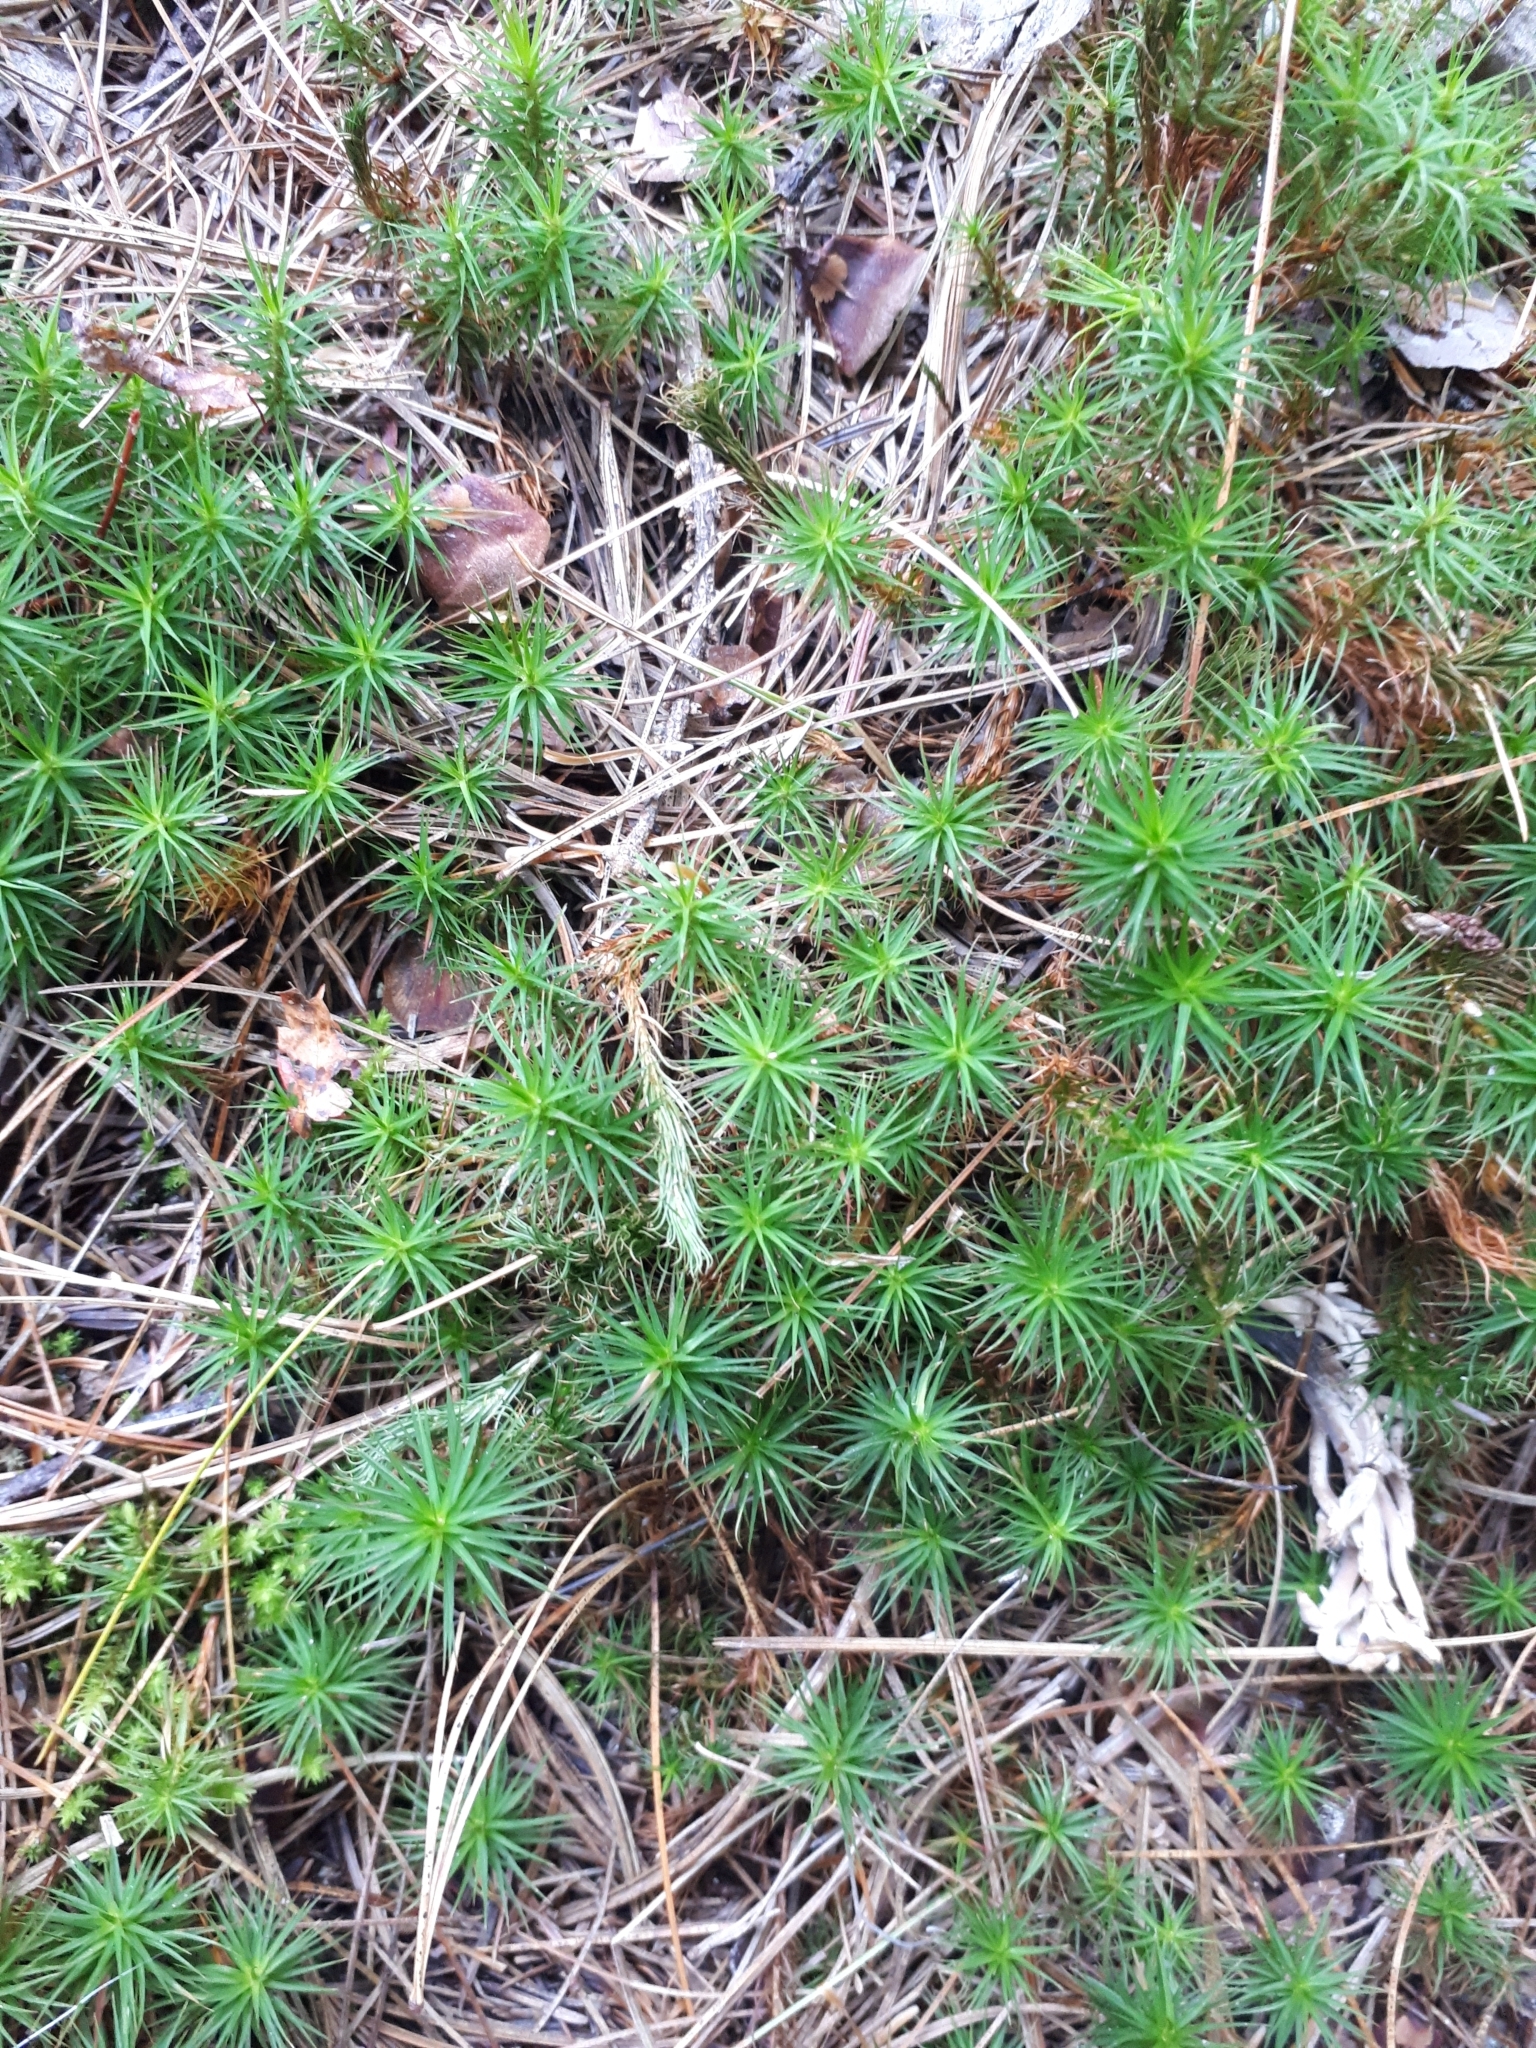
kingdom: Plantae
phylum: Bryophyta
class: Polytrichopsida
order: Polytrichales
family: Polytrichaceae
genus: Polytrichum
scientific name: Polytrichum commune
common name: Common haircap
